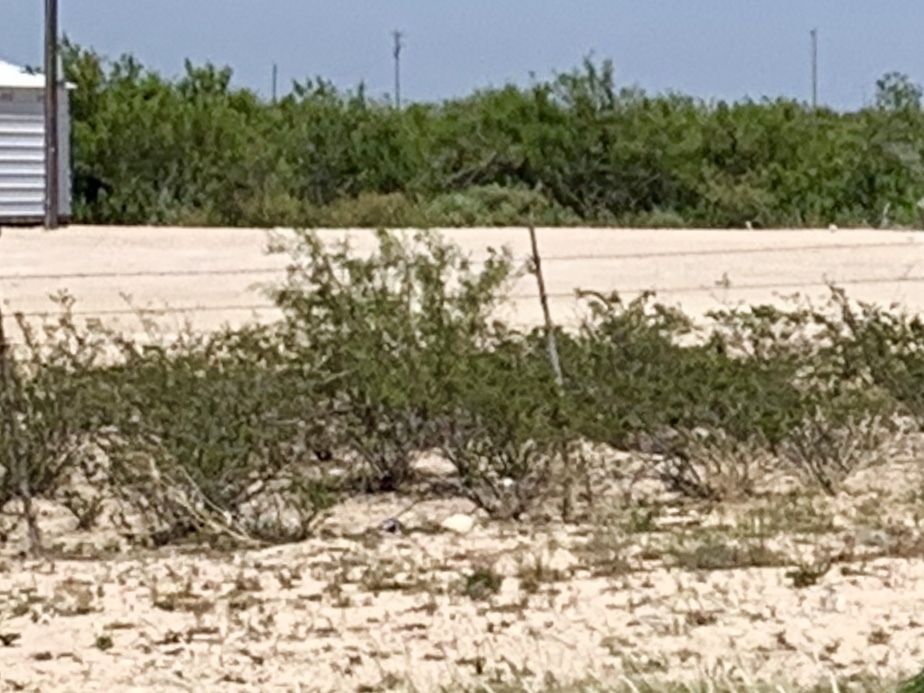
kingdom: Plantae
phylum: Tracheophyta
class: Magnoliopsida
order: Zygophyllales
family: Zygophyllaceae
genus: Larrea
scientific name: Larrea tridentata
